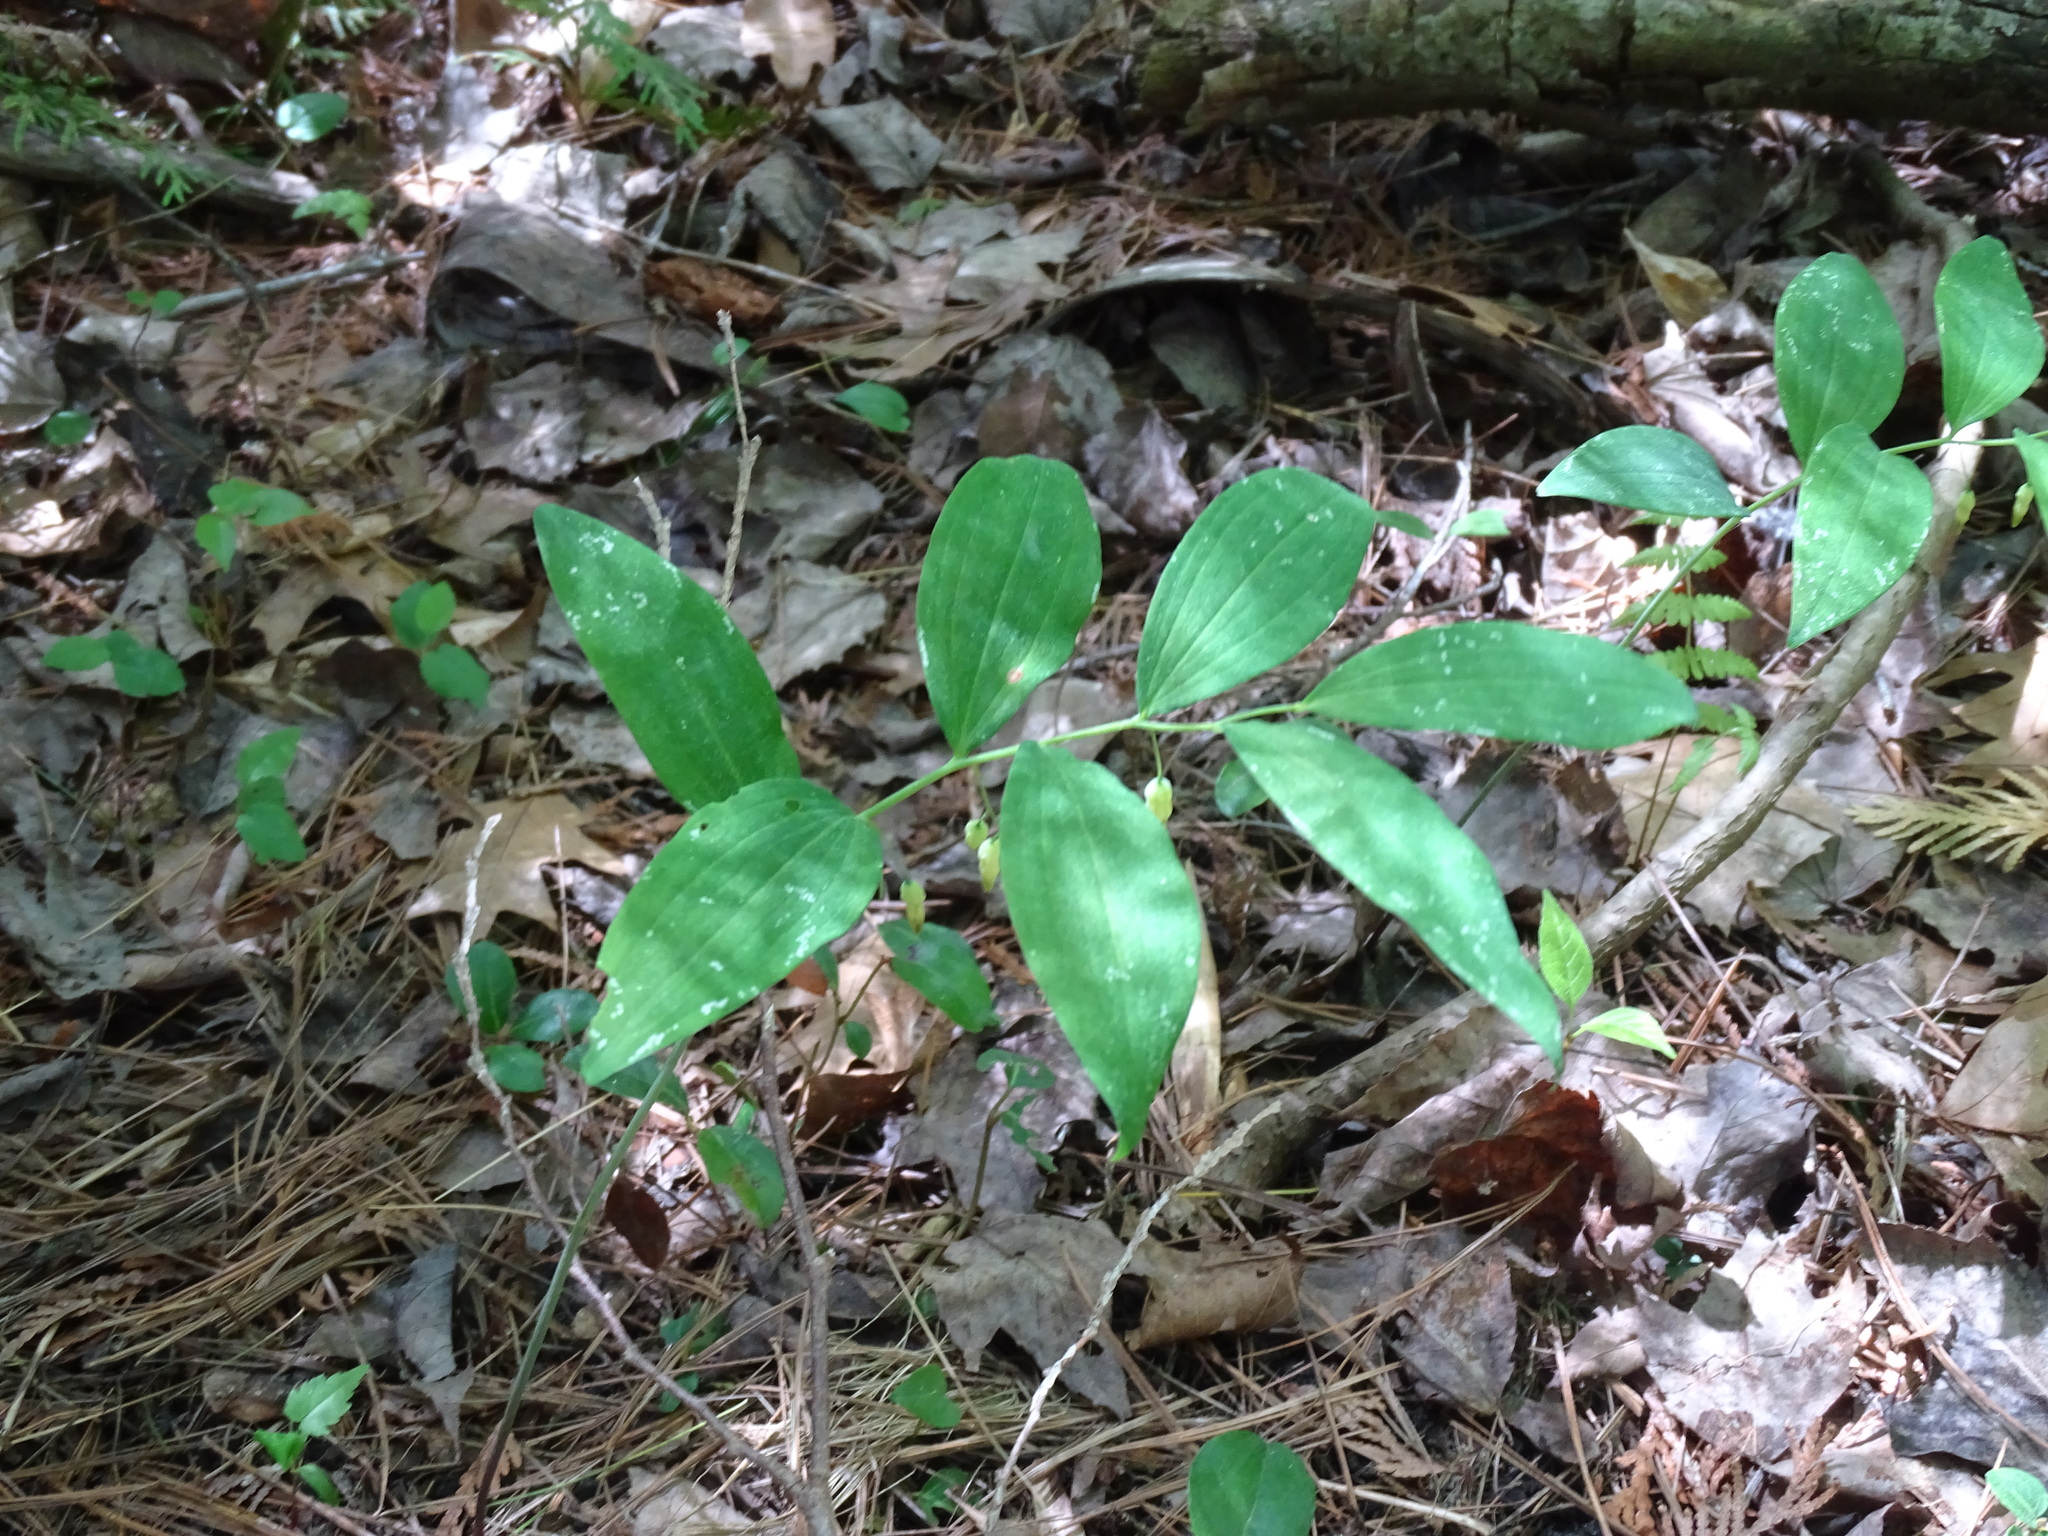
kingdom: Plantae
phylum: Tracheophyta
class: Liliopsida
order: Asparagales
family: Asparagaceae
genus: Polygonatum
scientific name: Polygonatum pubescens
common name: Downy solomon's seal
